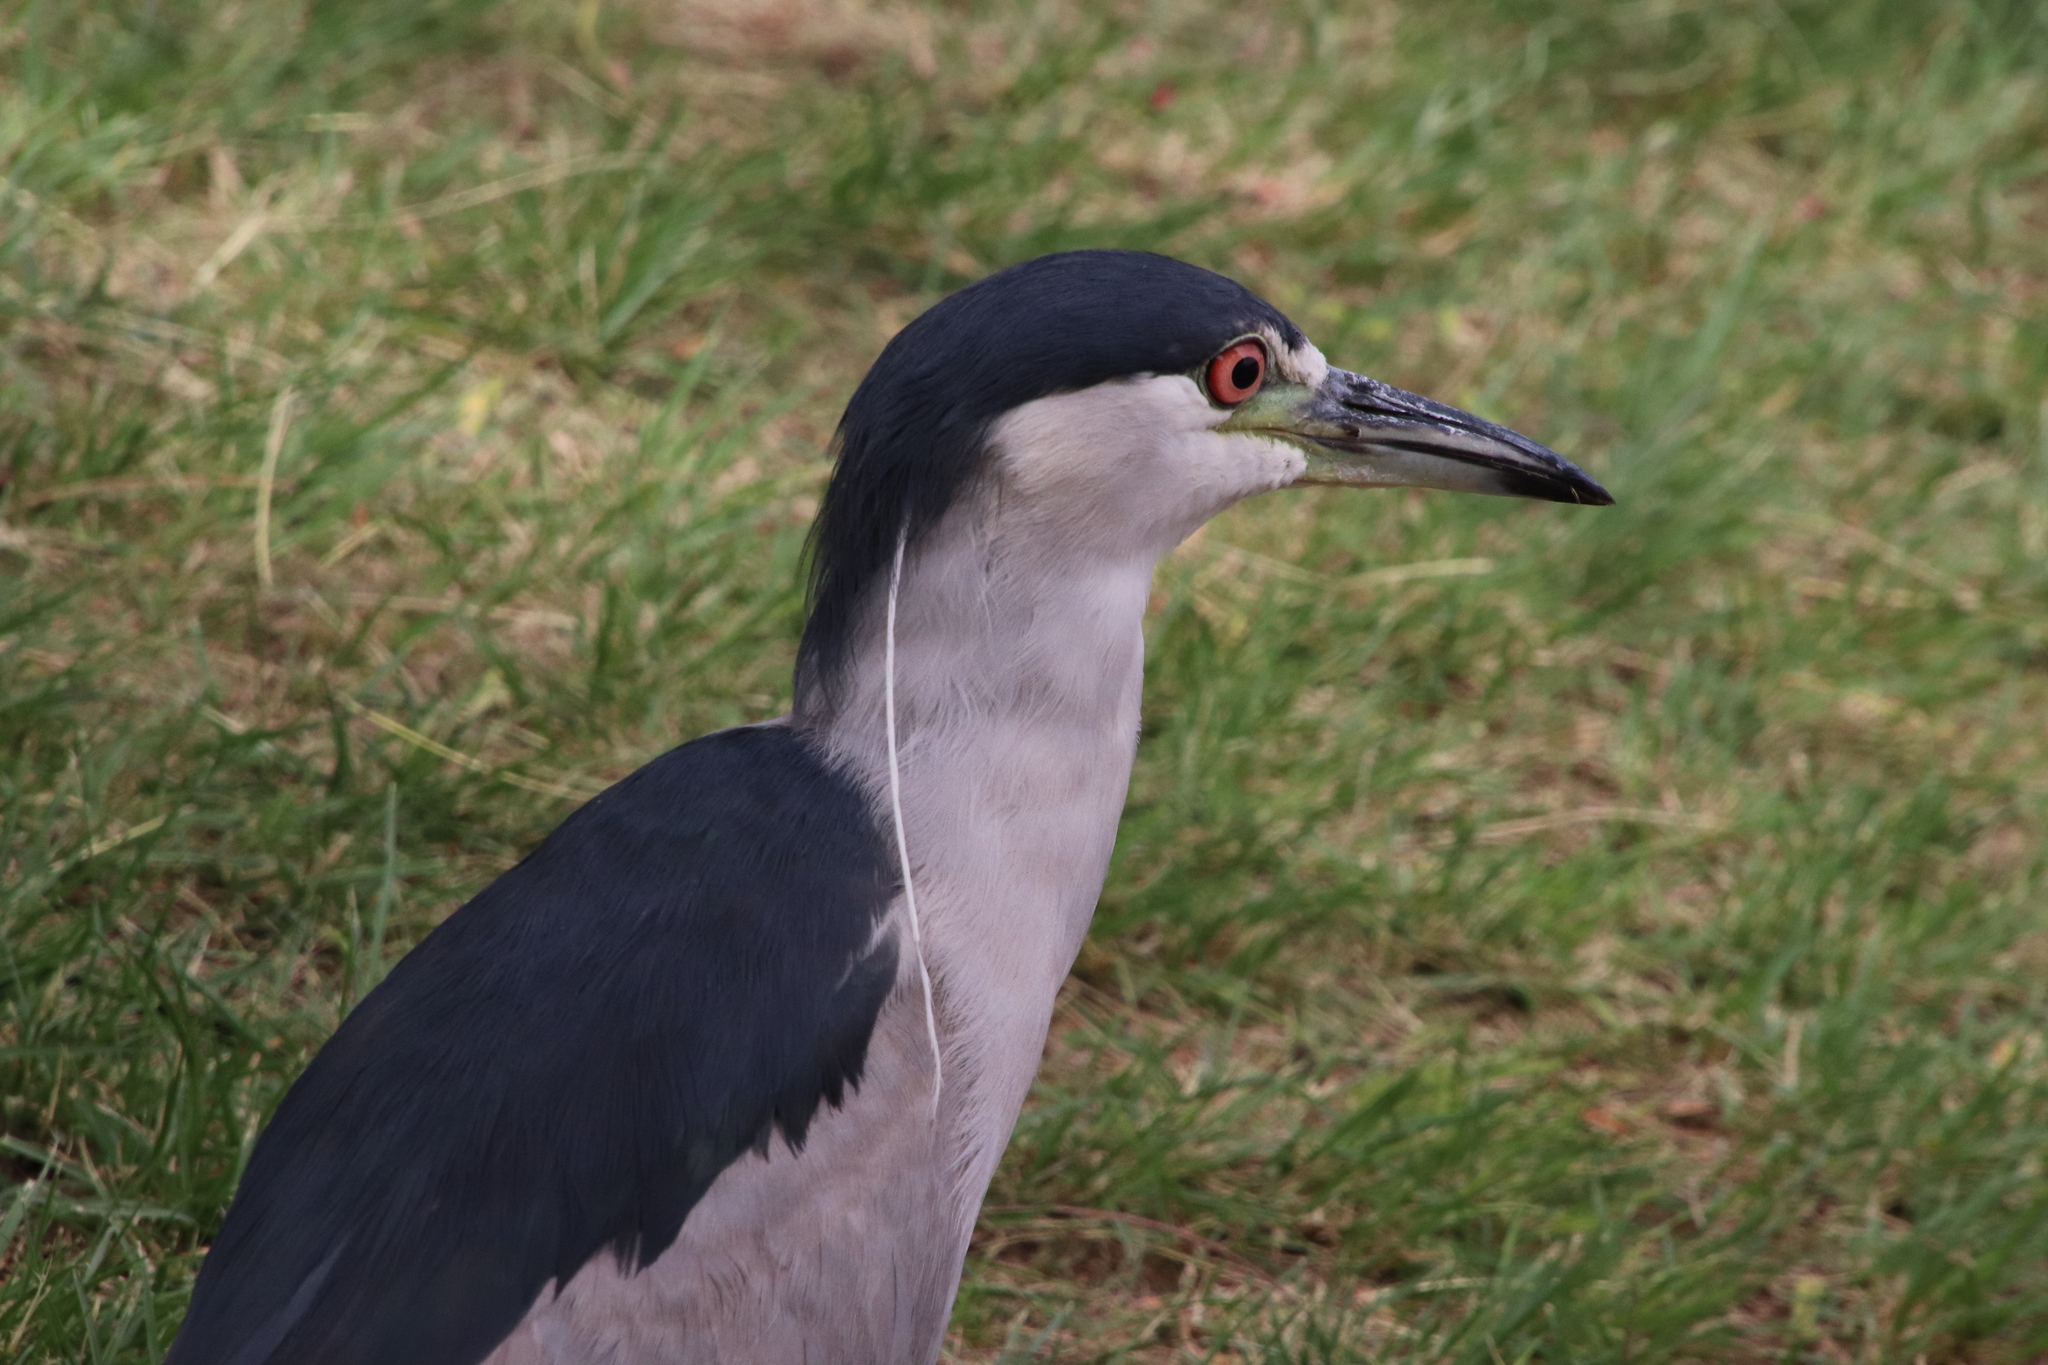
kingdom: Animalia
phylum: Chordata
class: Aves
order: Pelecaniformes
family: Ardeidae
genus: Nycticorax
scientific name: Nycticorax nycticorax
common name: Black-crowned night heron
